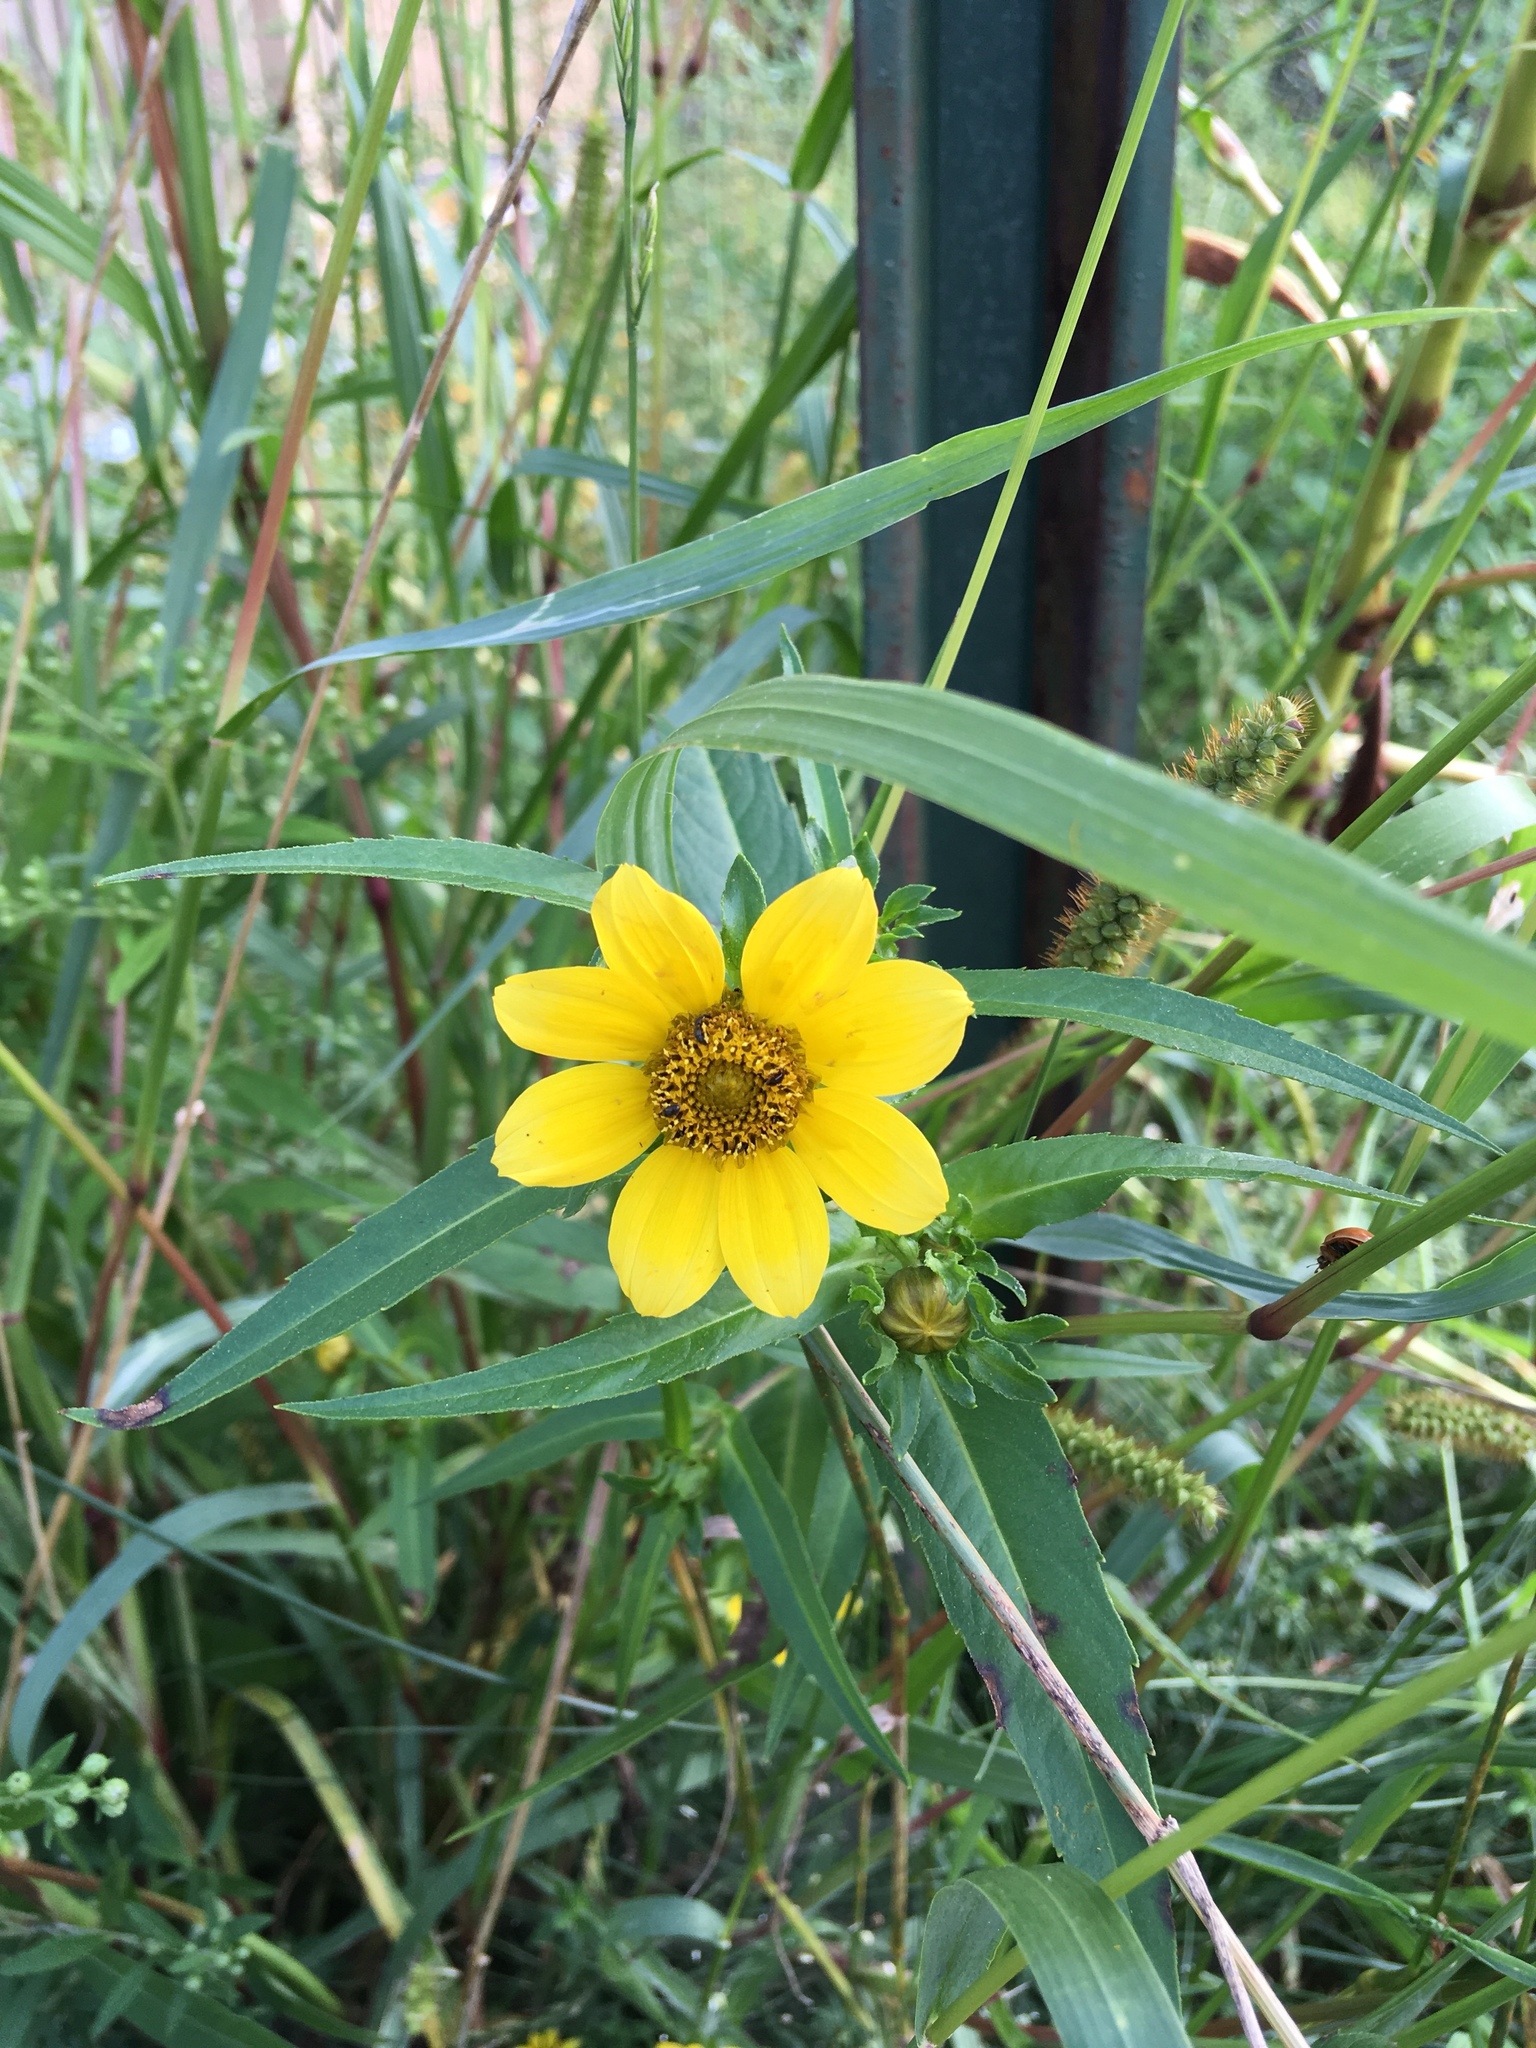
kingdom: Plantae
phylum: Tracheophyta
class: Magnoliopsida
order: Asterales
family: Asteraceae
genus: Bidens
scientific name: Bidens cernua
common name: Nodding bur-marigold
